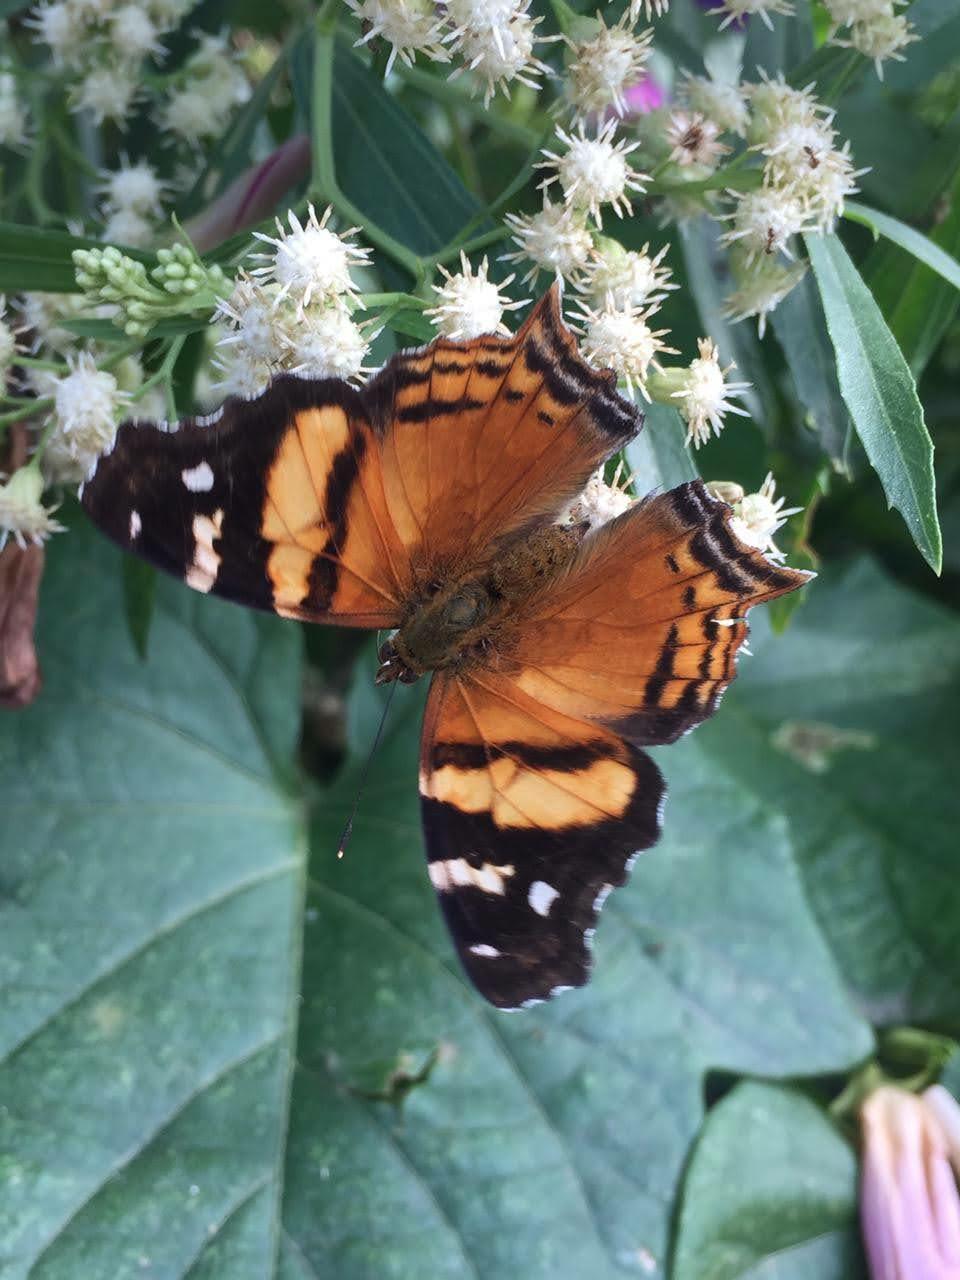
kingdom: Animalia
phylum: Arthropoda
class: Insecta
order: Lepidoptera
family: Nymphalidae
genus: Hypanartia
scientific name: Hypanartia bella
